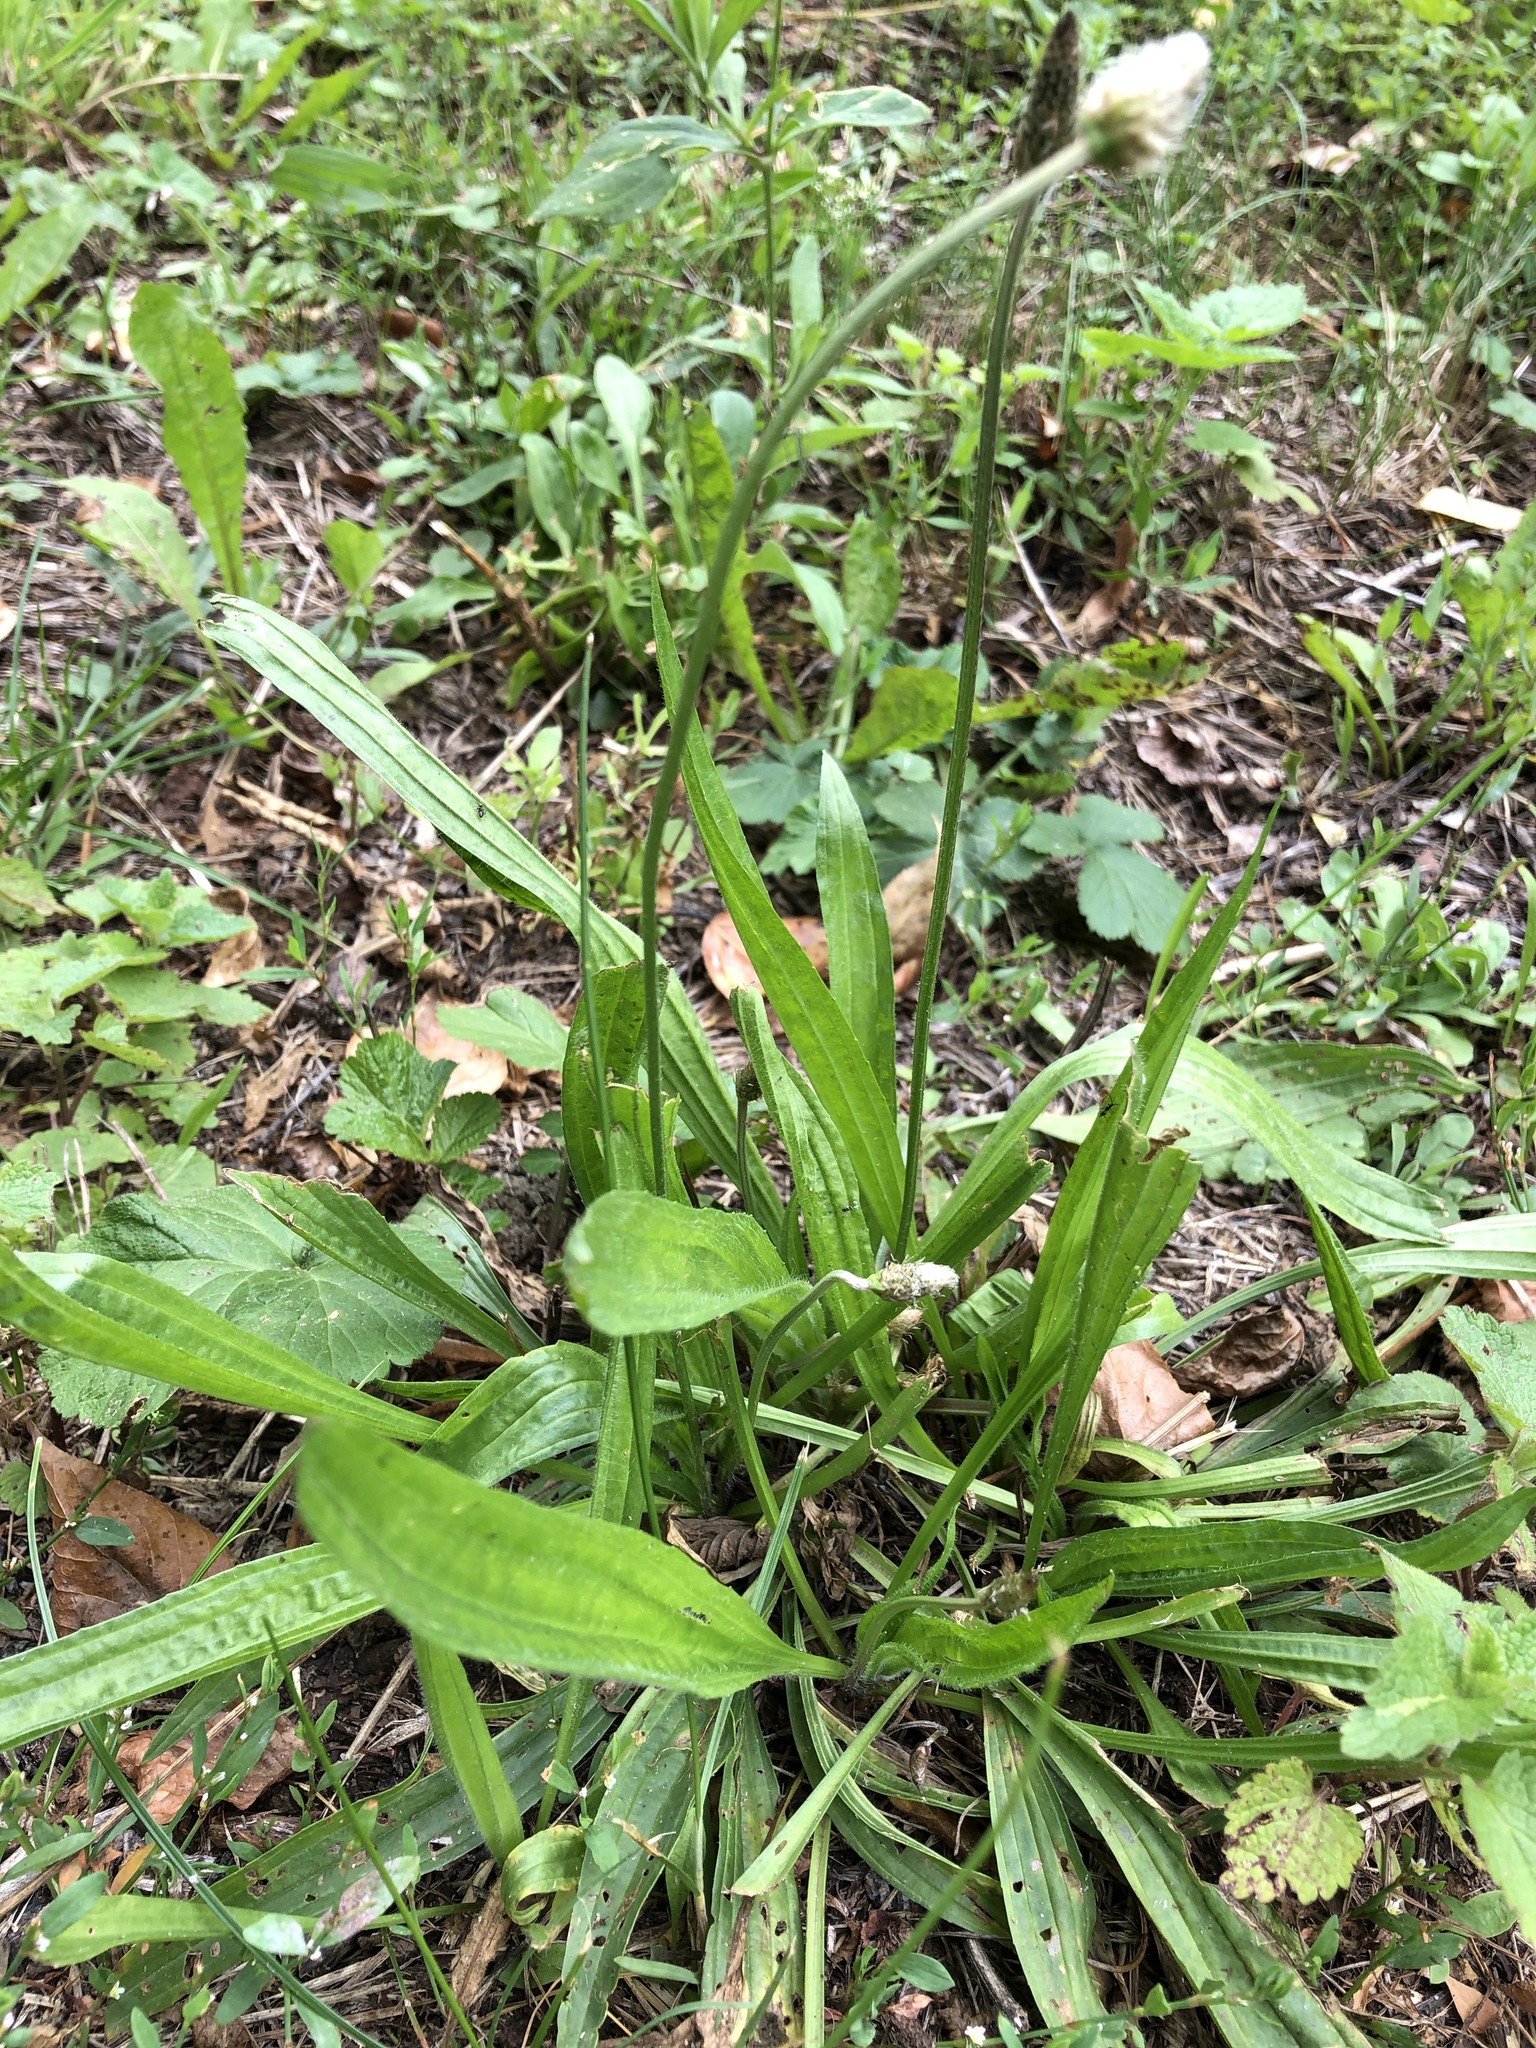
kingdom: Plantae
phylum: Tracheophyta
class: Magnoliopsida
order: Lamiales
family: Plantaginaceae
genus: Plantago
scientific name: Plantago lanceolata
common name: Ribwort plantain
